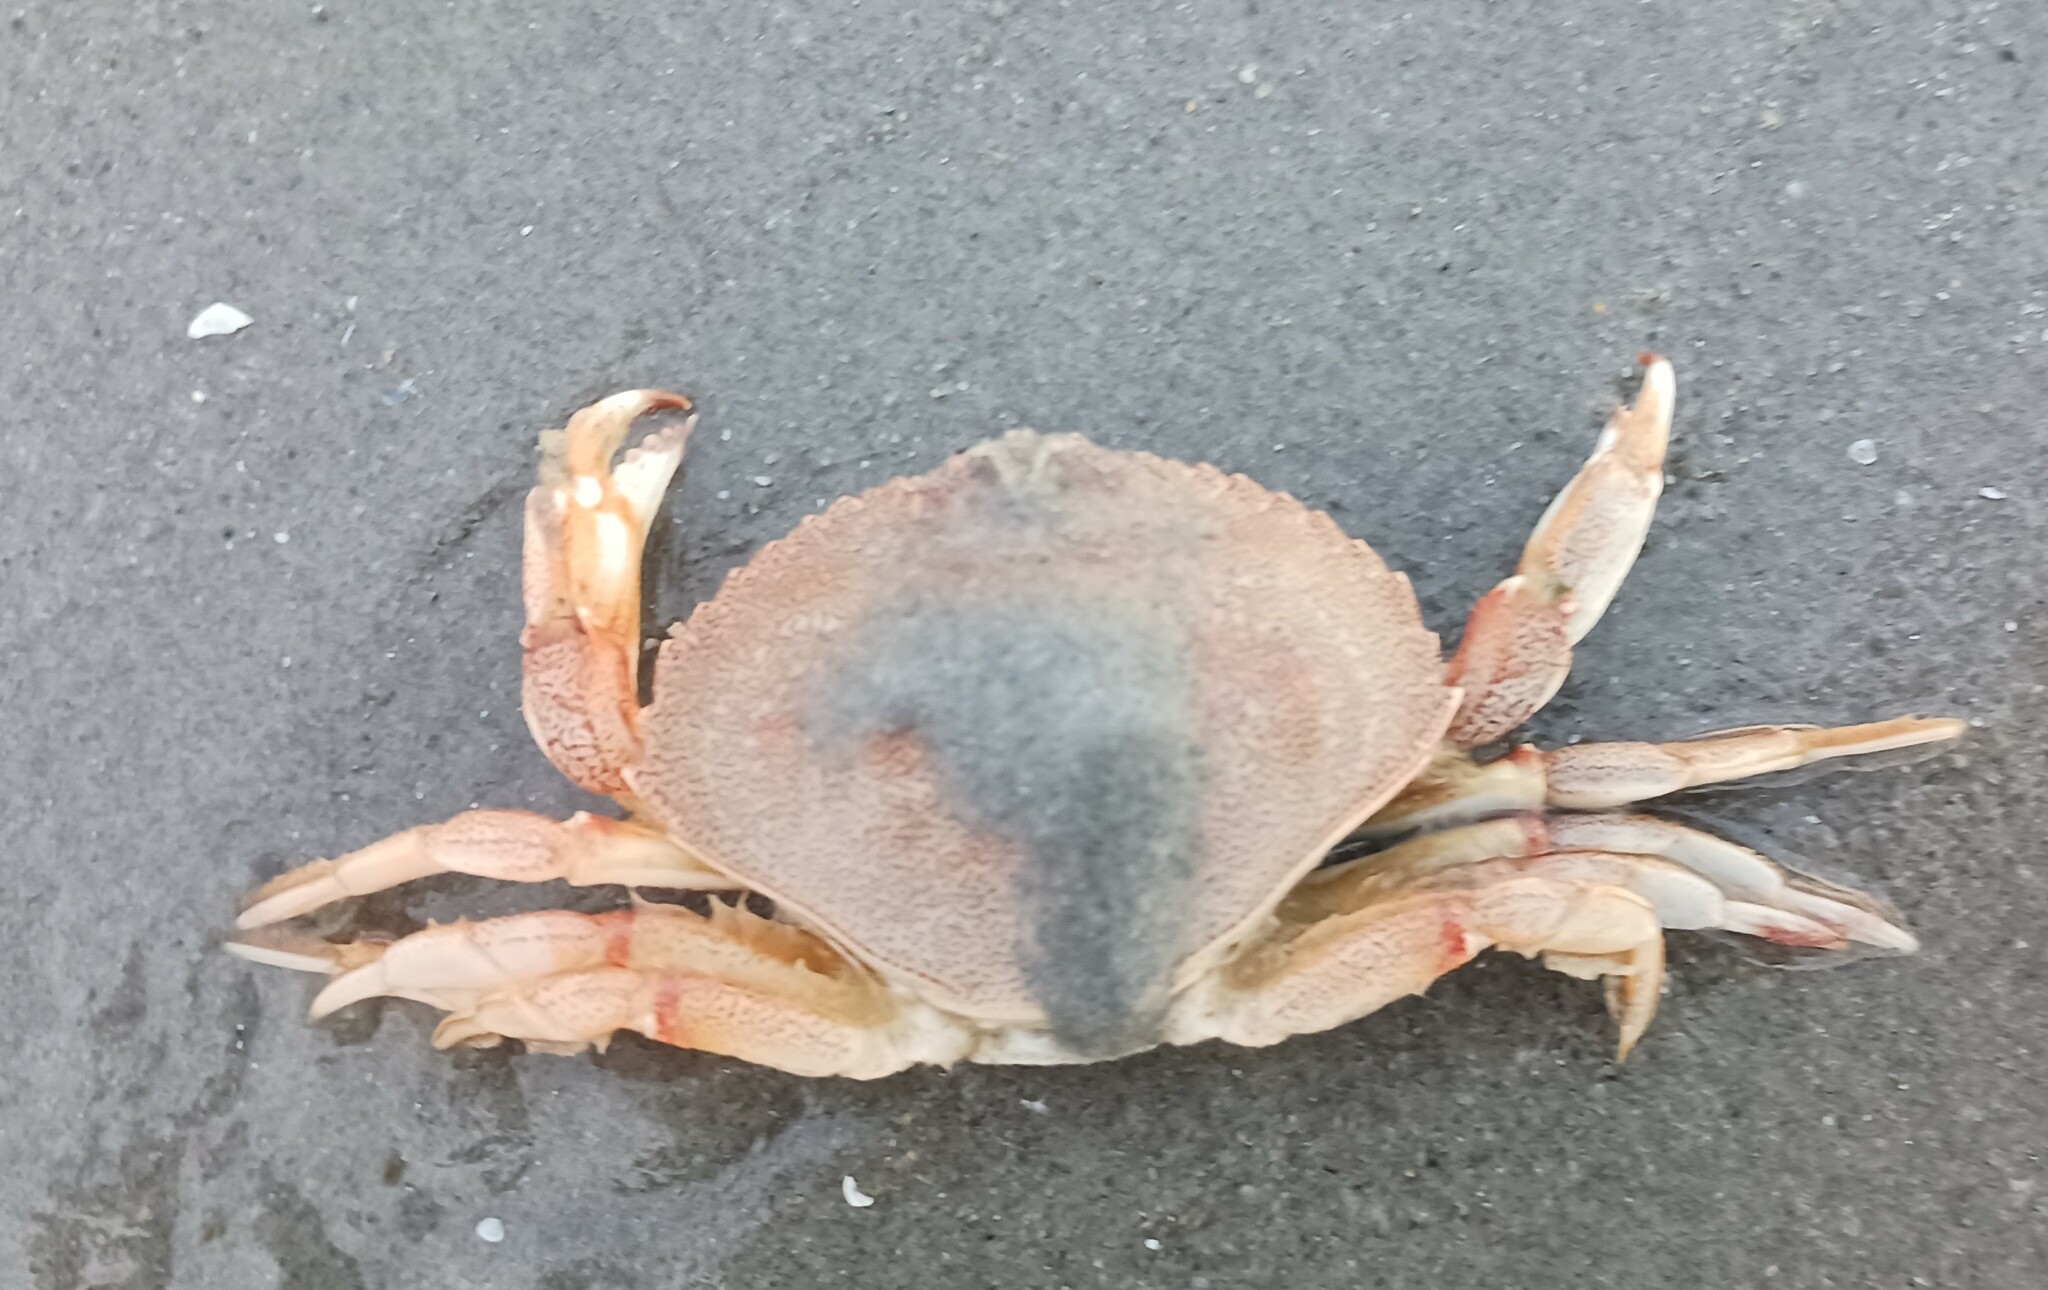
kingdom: Animalia
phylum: Arthropoda
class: Malacostraca
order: Decapoda
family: Cancridae
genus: Cancer
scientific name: Cancer irroratus
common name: Atlantic rock crab
